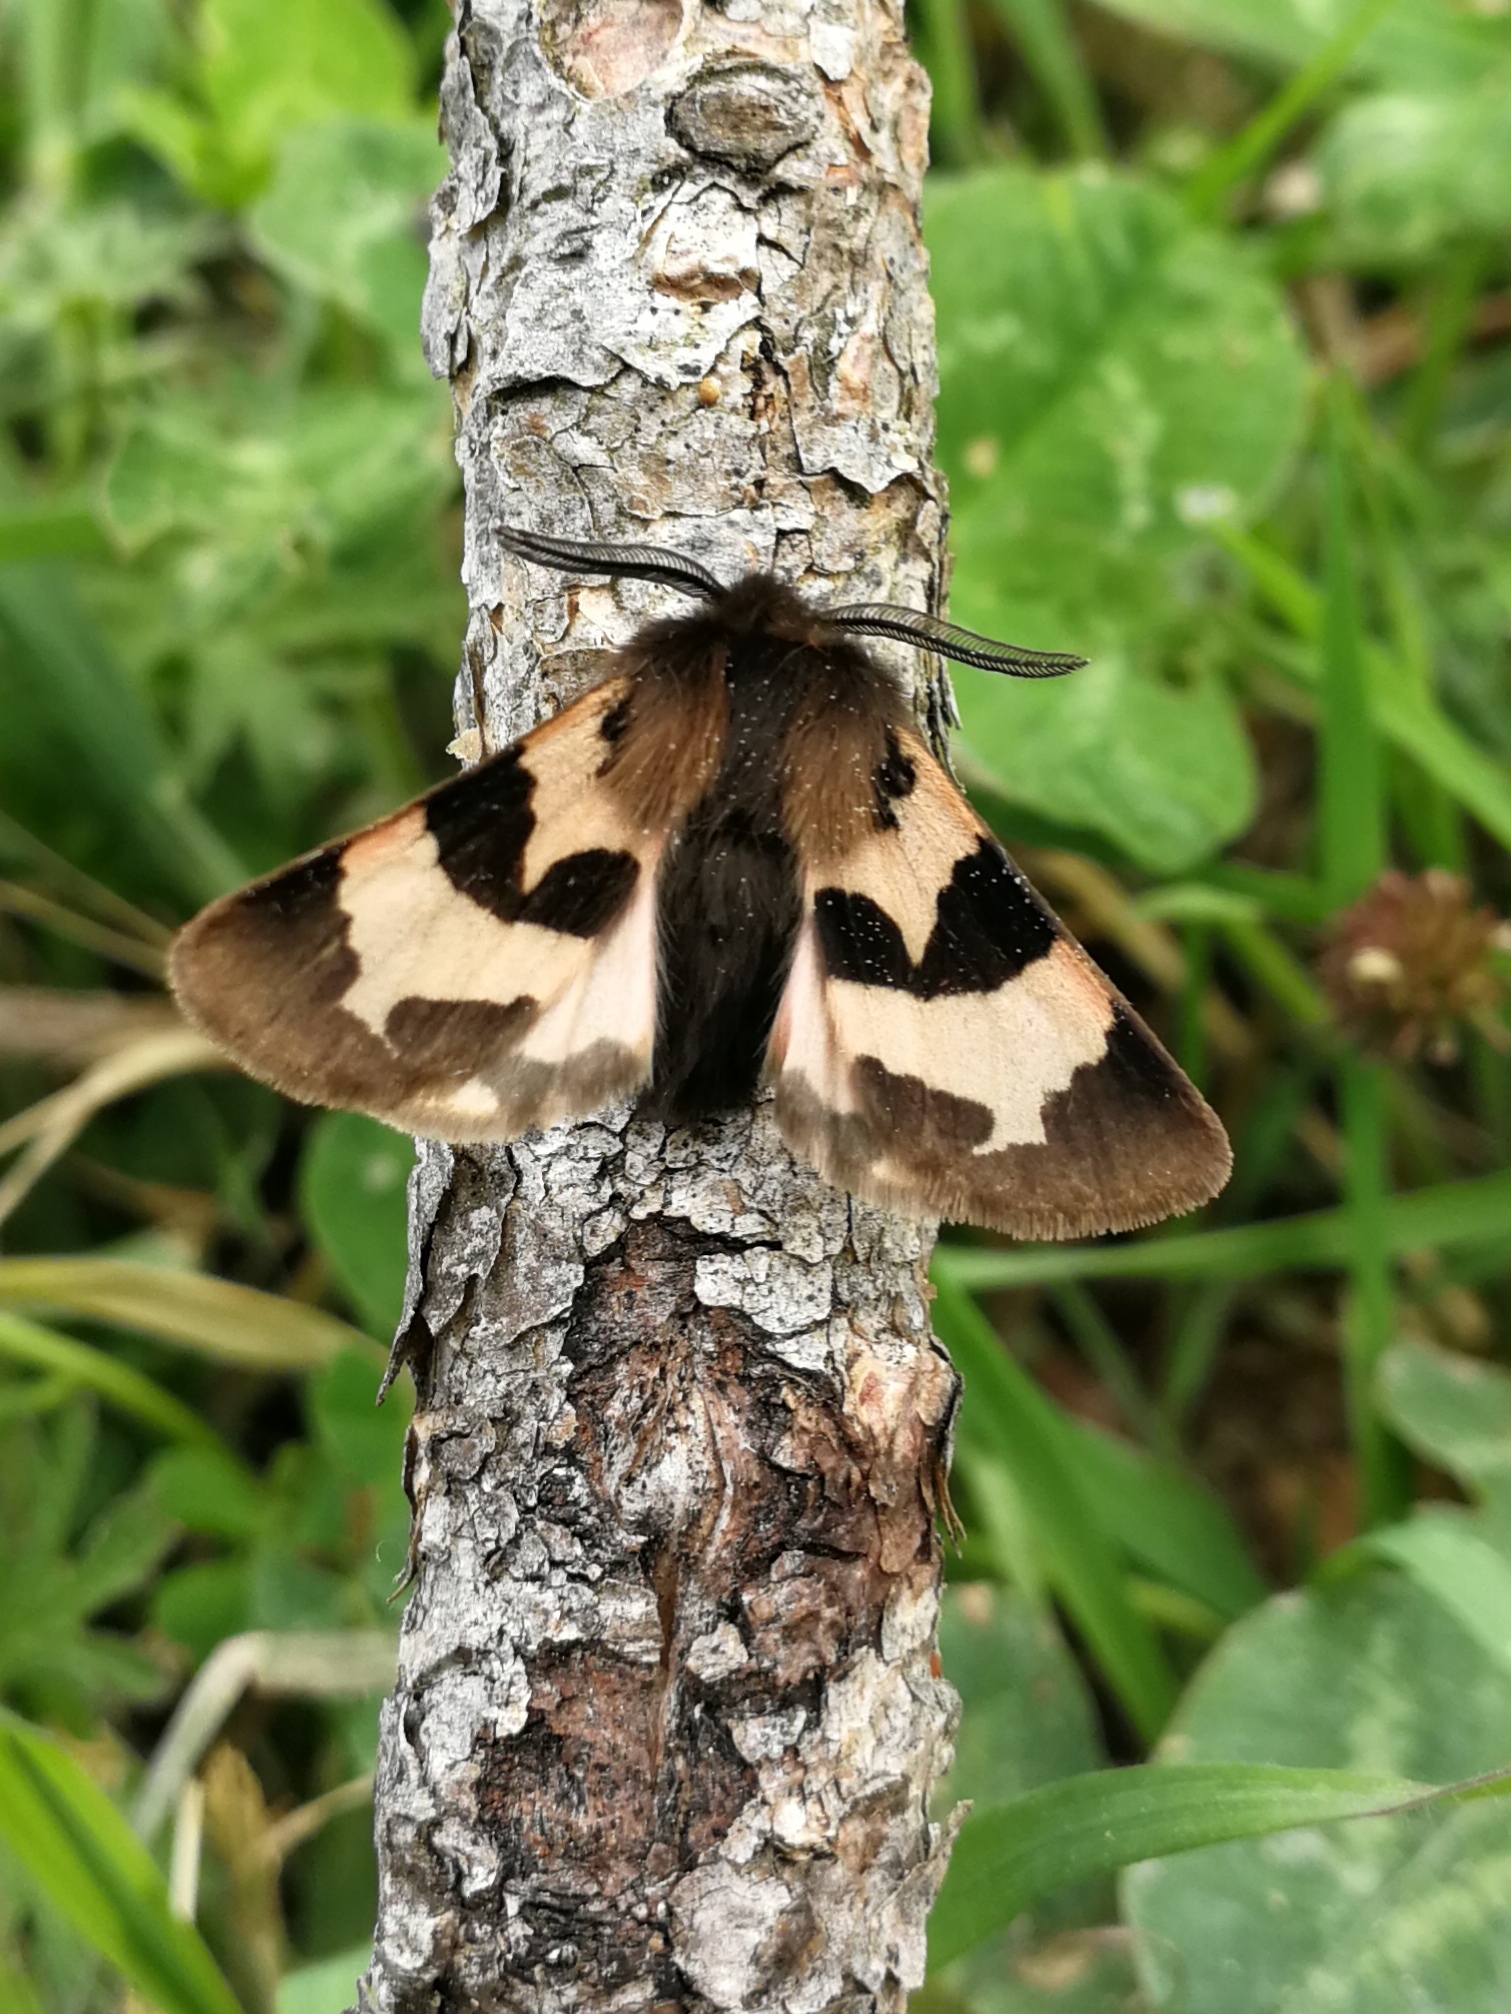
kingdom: Animalia
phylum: Arthropoda
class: Insecta
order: Lepidoptera
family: Erebidae
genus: Watsonarctia
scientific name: Watsonarctia deserta
